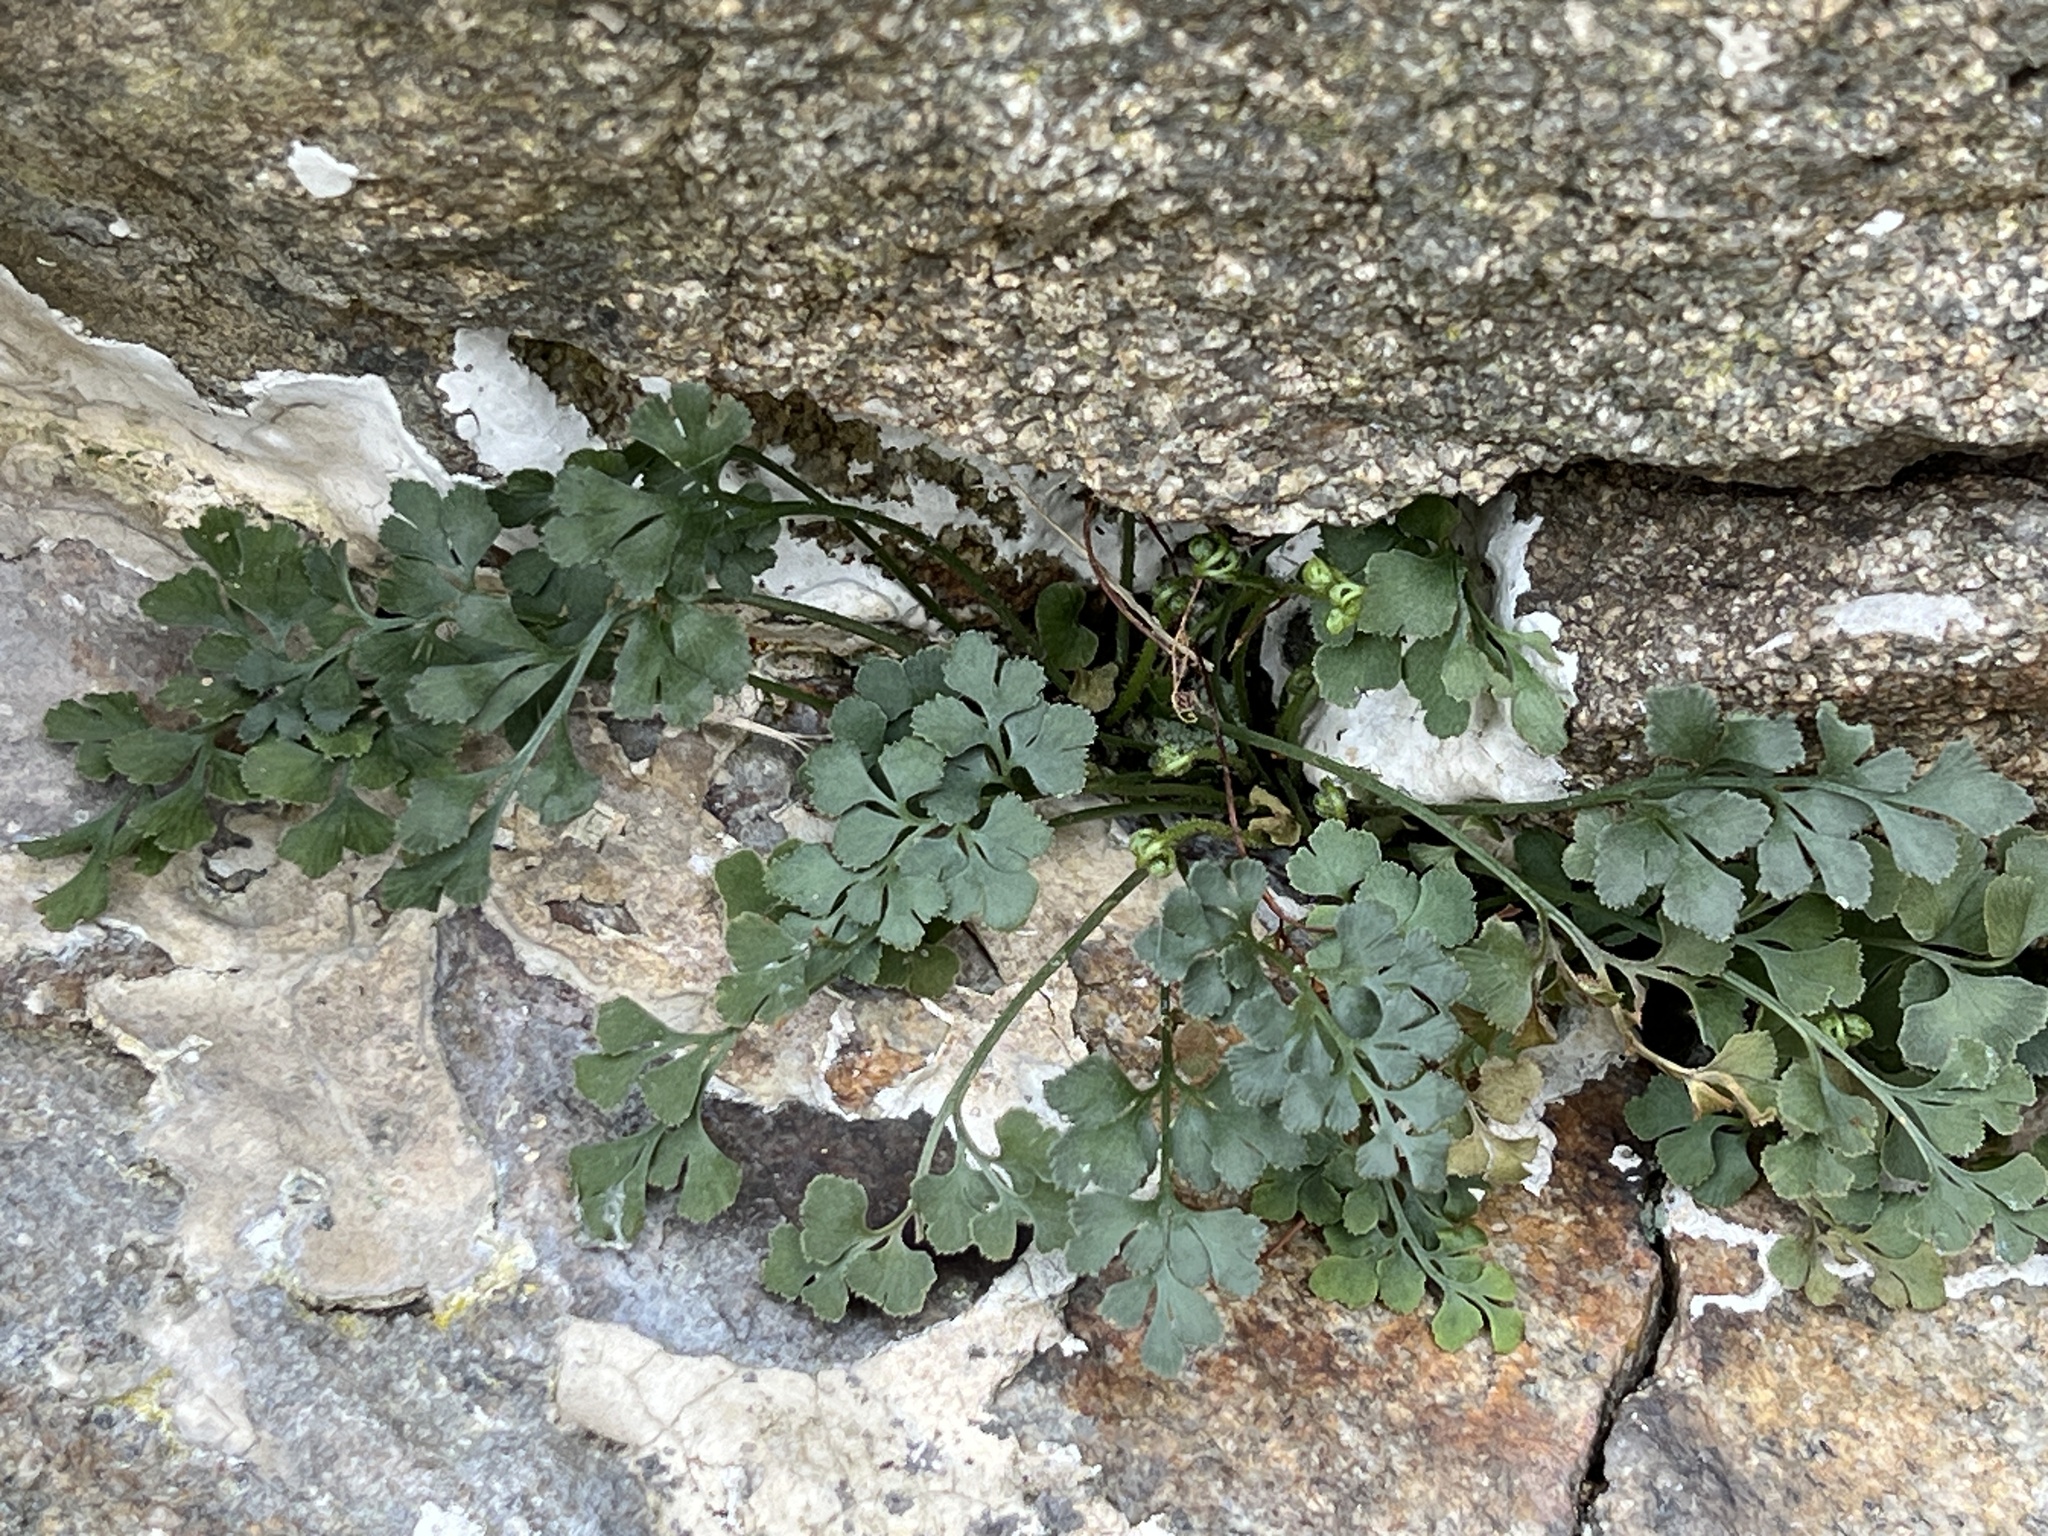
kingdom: Plantae
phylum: Tracheophyta
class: Polypodiopsida
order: Polypodiales
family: Aspleniaceae
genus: Asplenium
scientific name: Asplenium ruta-muraria
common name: Wall-rue
